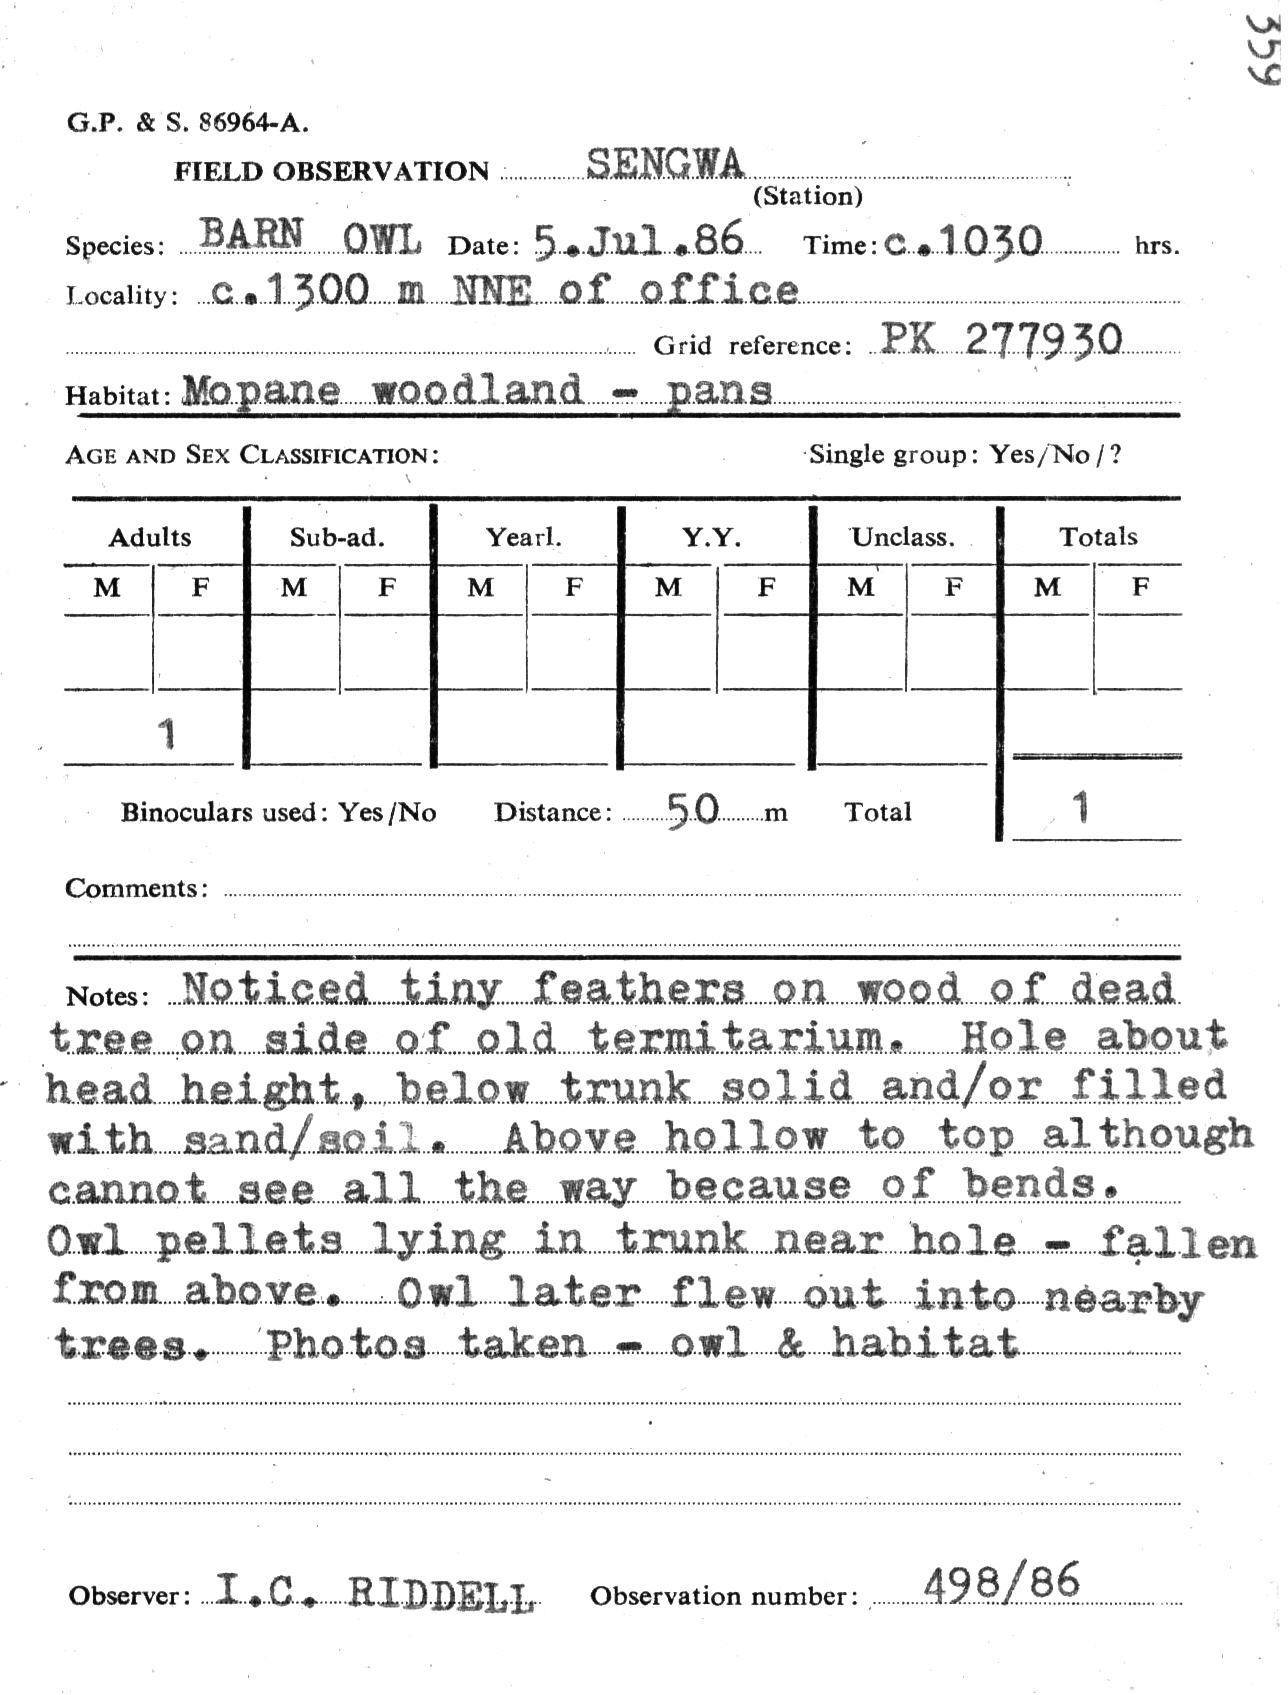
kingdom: Animalia
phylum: Chordata
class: Aves
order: Strigiformes
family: Tytonidae
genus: Tyto
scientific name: Tyto alba
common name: Barn owl
